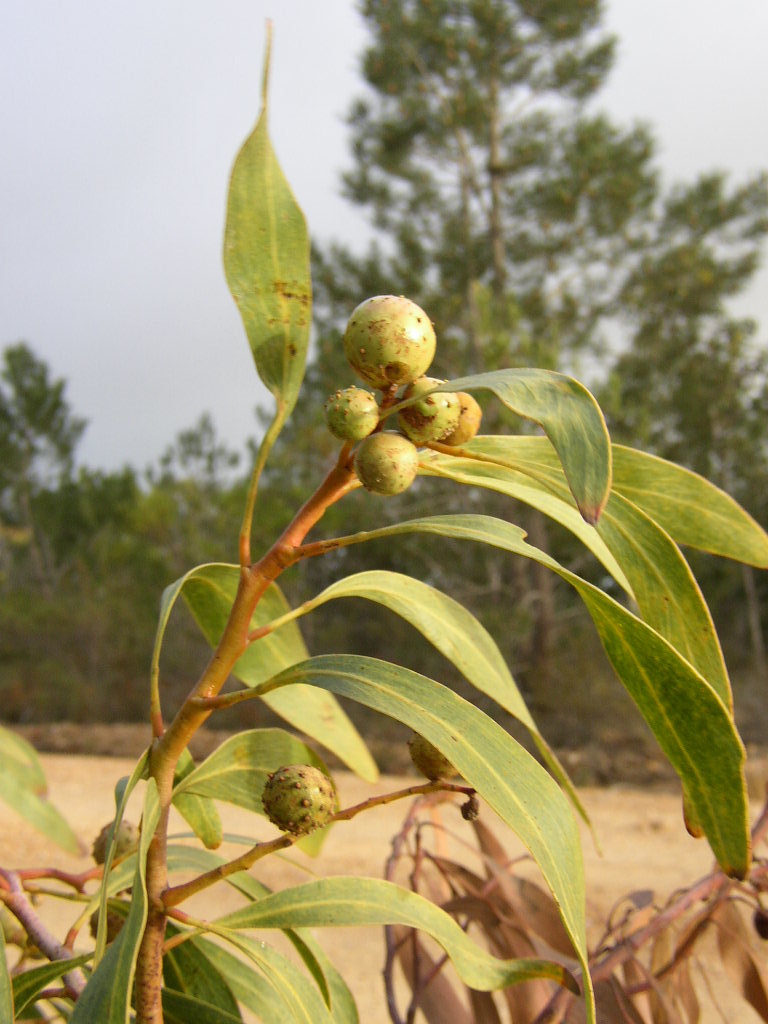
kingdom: Animalia
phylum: Arthropoda
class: Insecta
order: Hymenoptera
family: Pteromalidae
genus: Trichilogaster
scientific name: Trichilogaster signiventris
